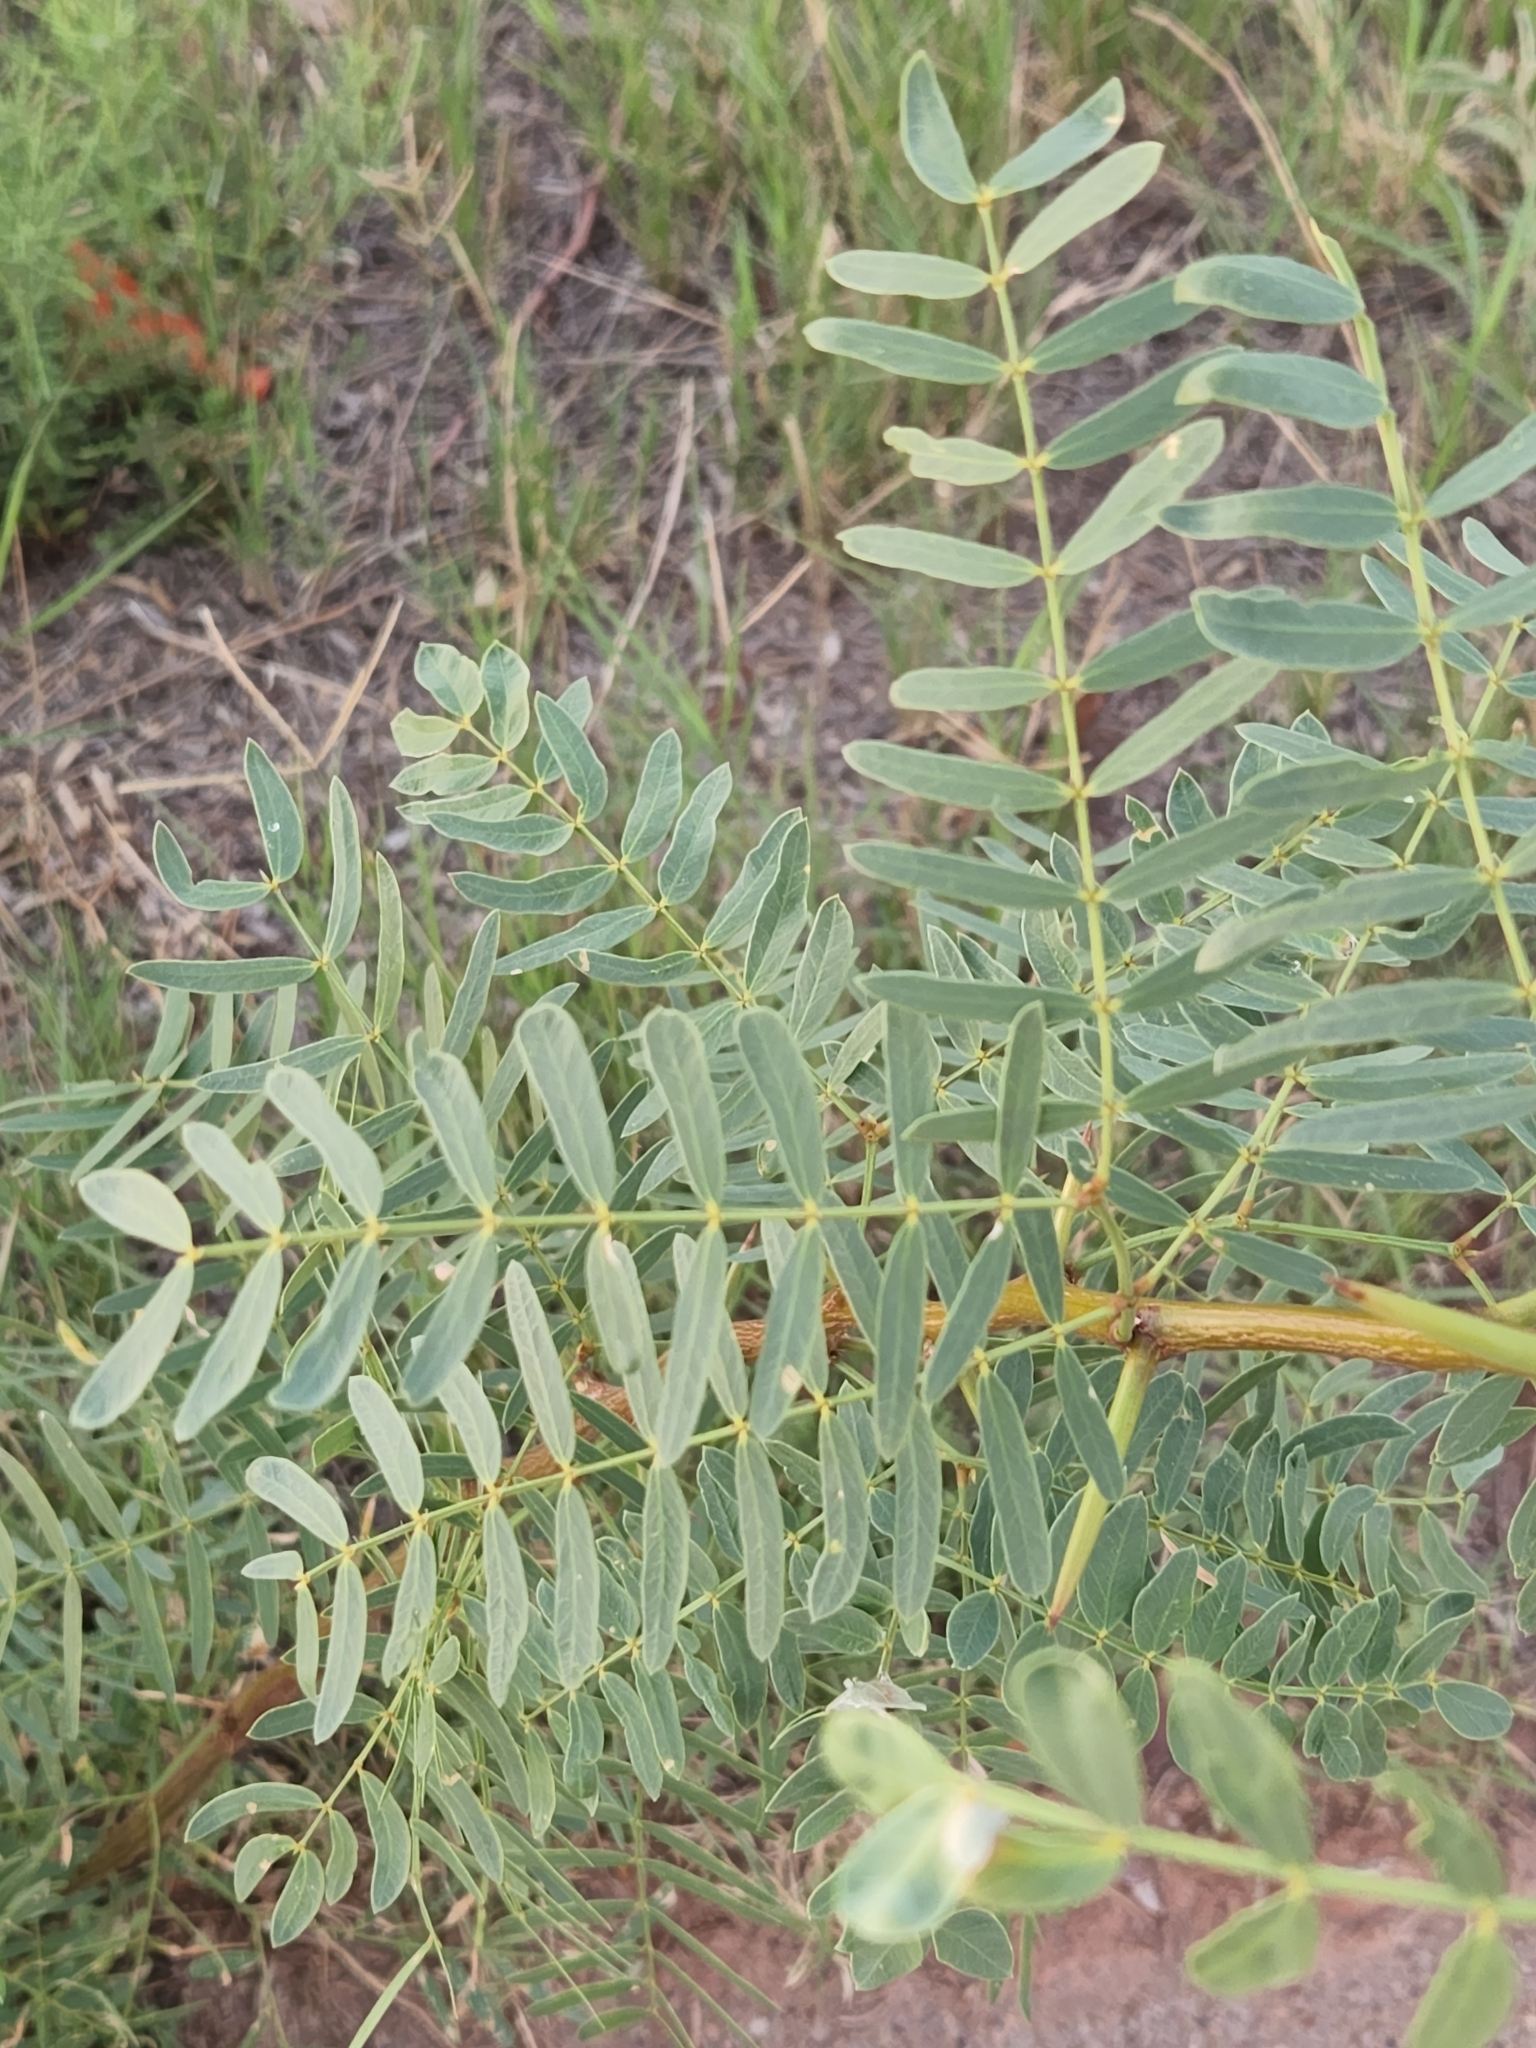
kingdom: Plantae
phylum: Tracheophyta
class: Magnoliopsida
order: Fabales
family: Fabaceae
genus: Prosopis
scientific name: Prosopis glandulosa
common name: Honey mesquite
